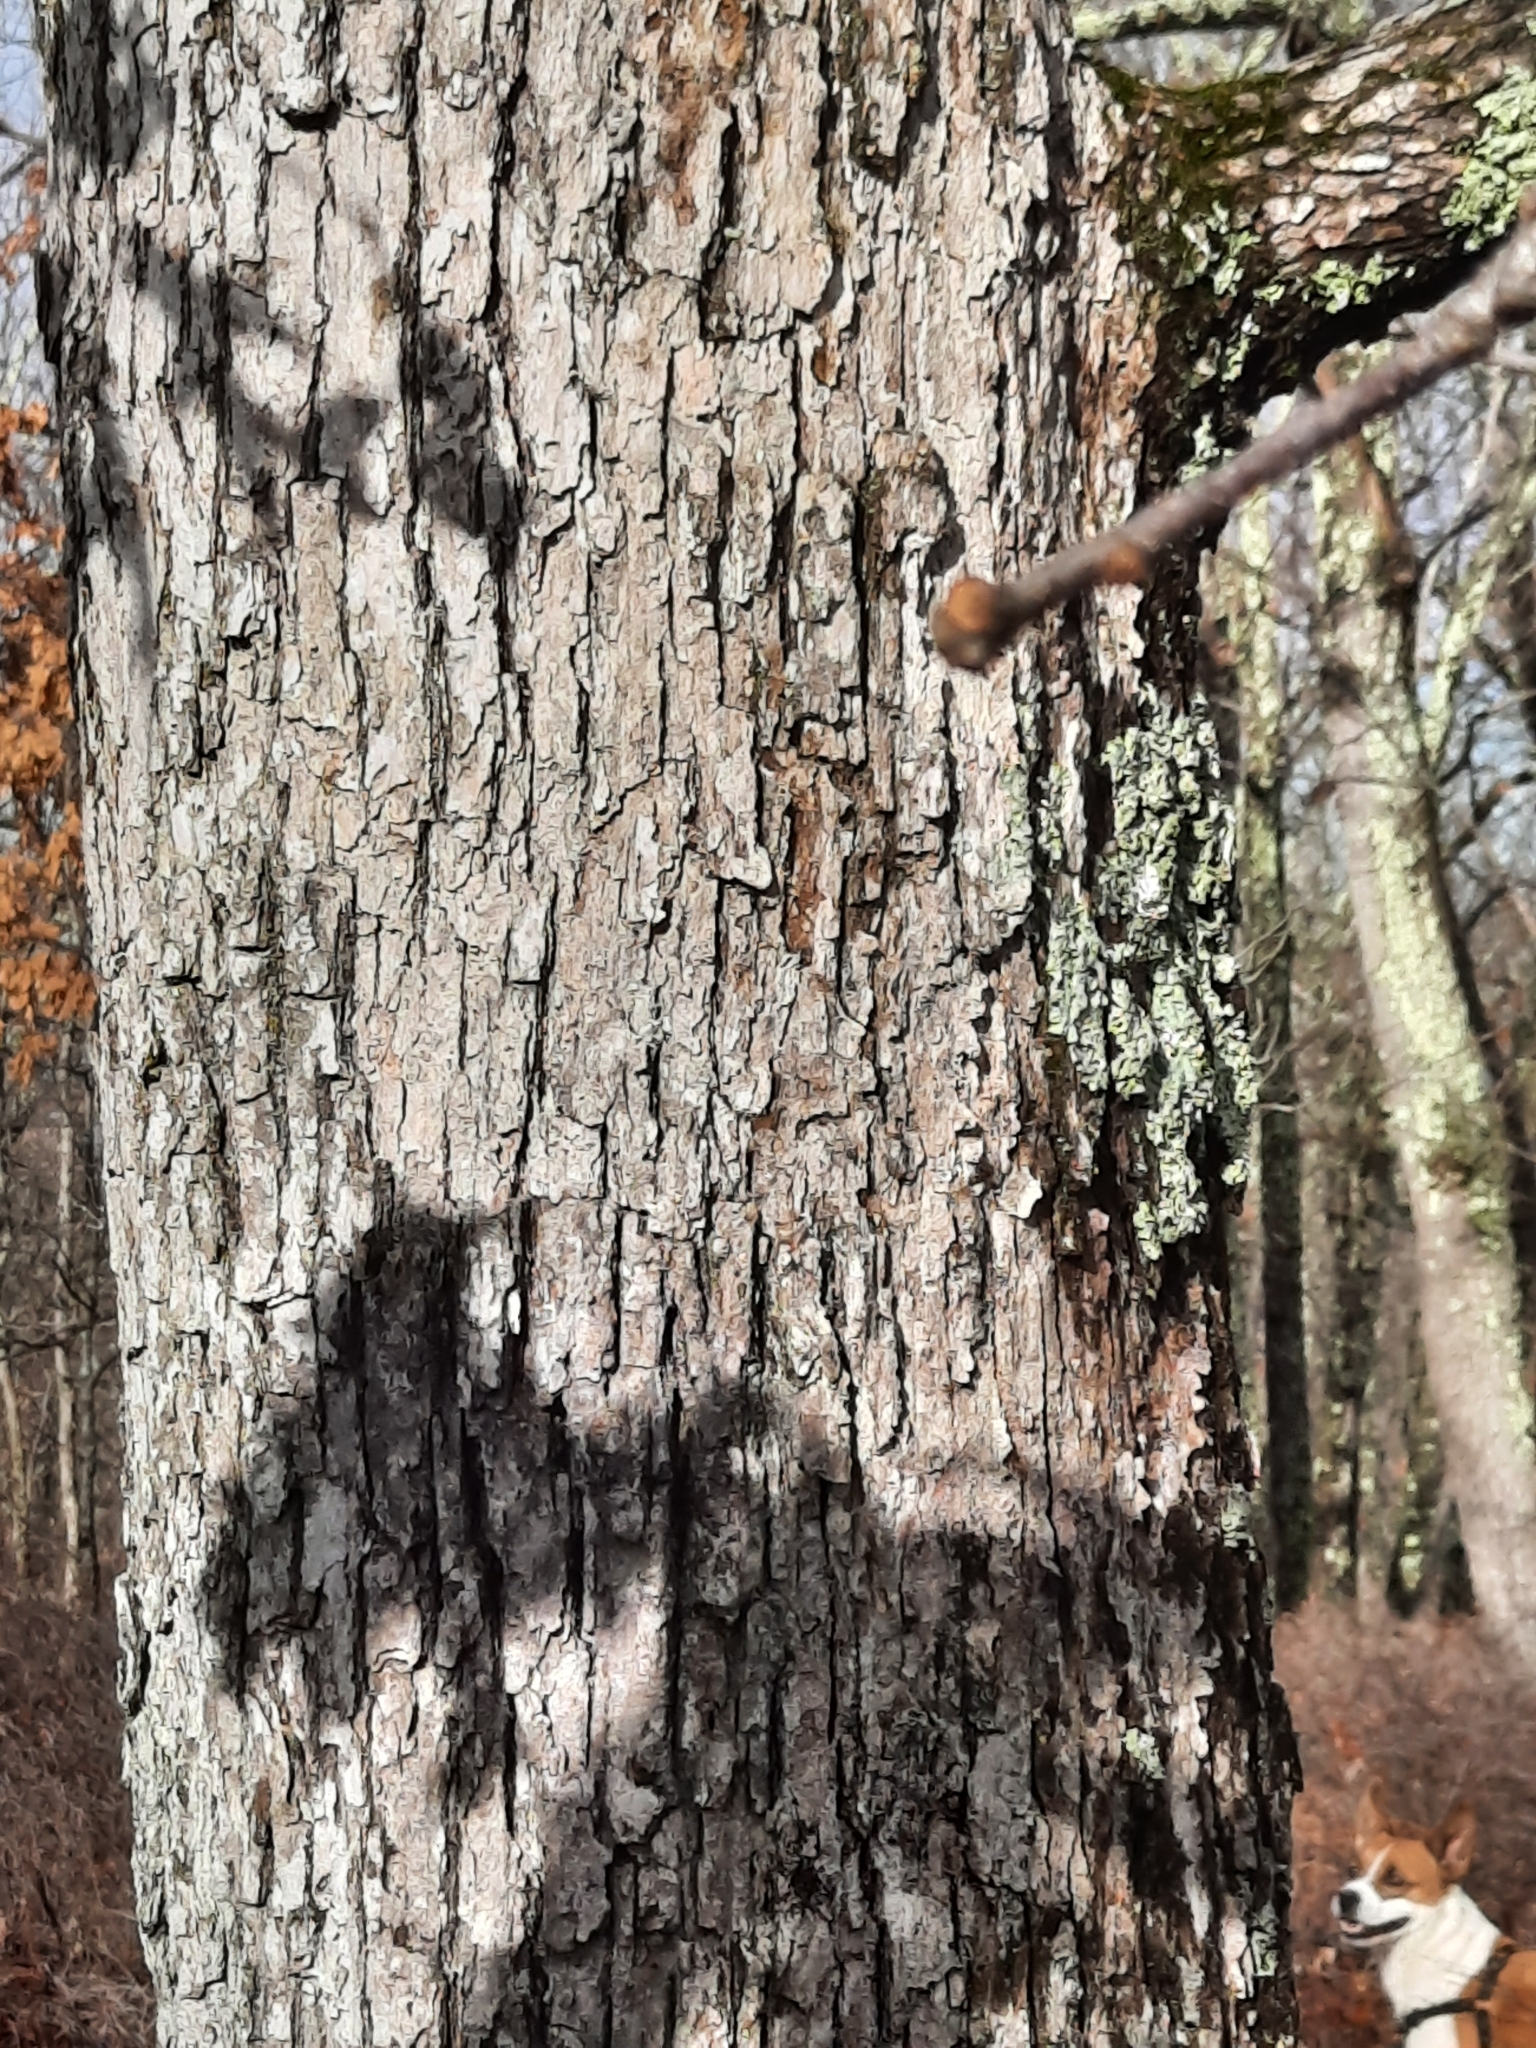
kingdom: Plantae
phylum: Tracheophyta
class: Magnoliopsida
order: Fagales
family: Fagaceae
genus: Quercus
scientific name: Quercus alba
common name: White oak
